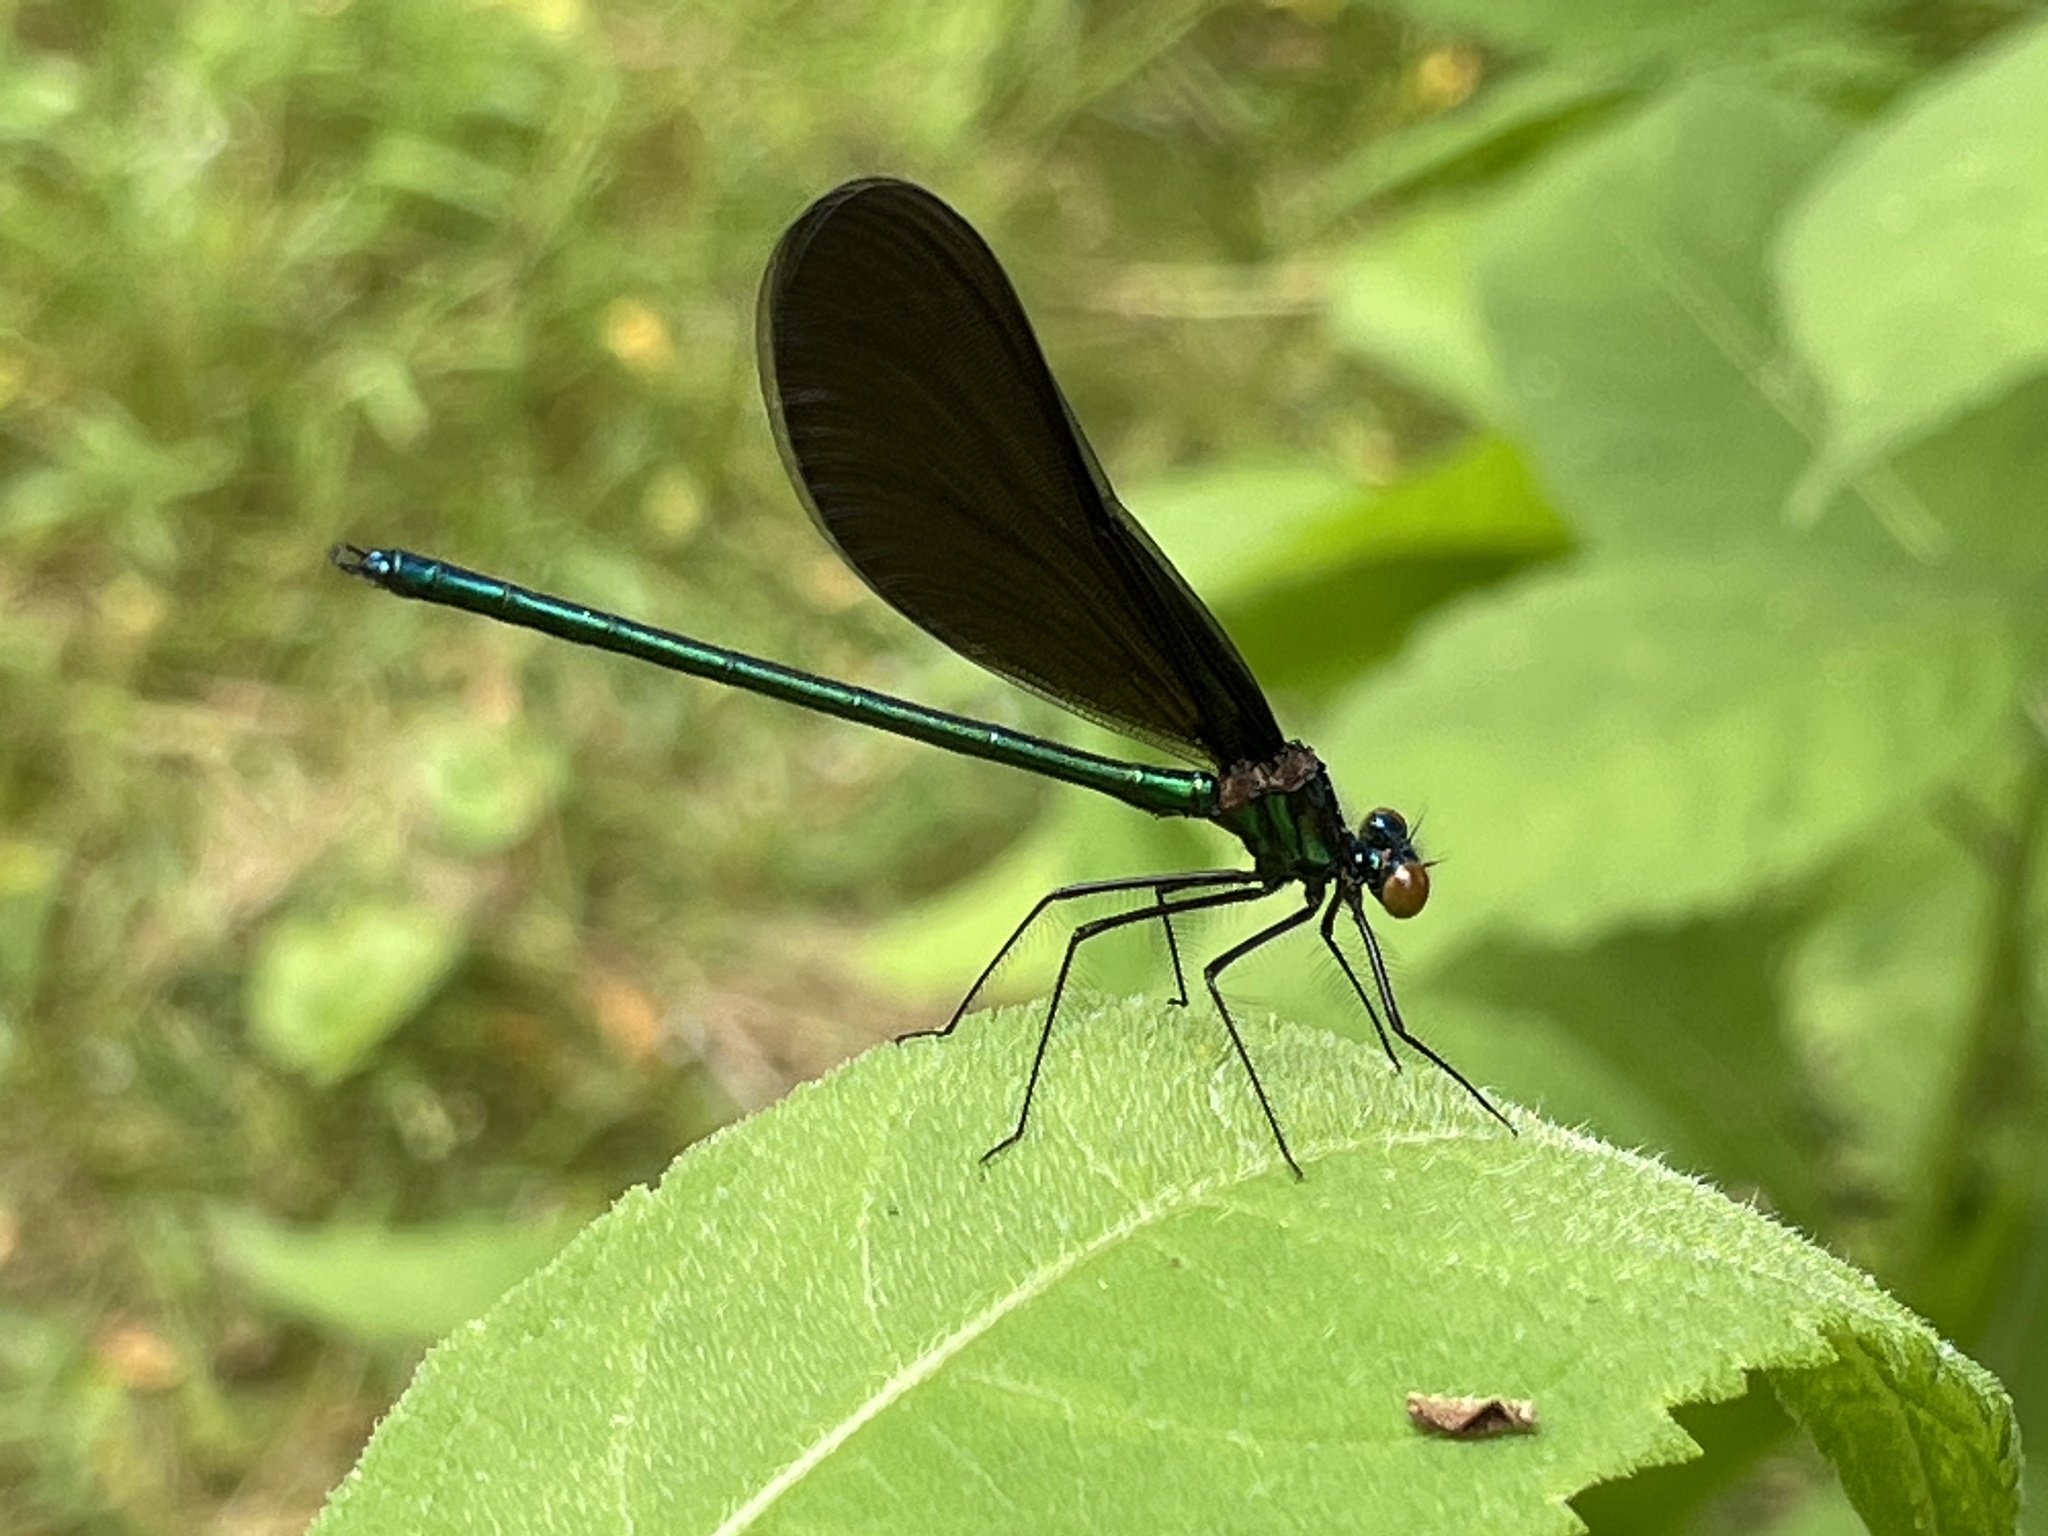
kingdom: Animalia
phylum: Arthropoda
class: Insecta
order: Odonata
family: Calopterygidae
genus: Calopteryx
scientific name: Calopteryx maculata
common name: Ebony jewelwing
